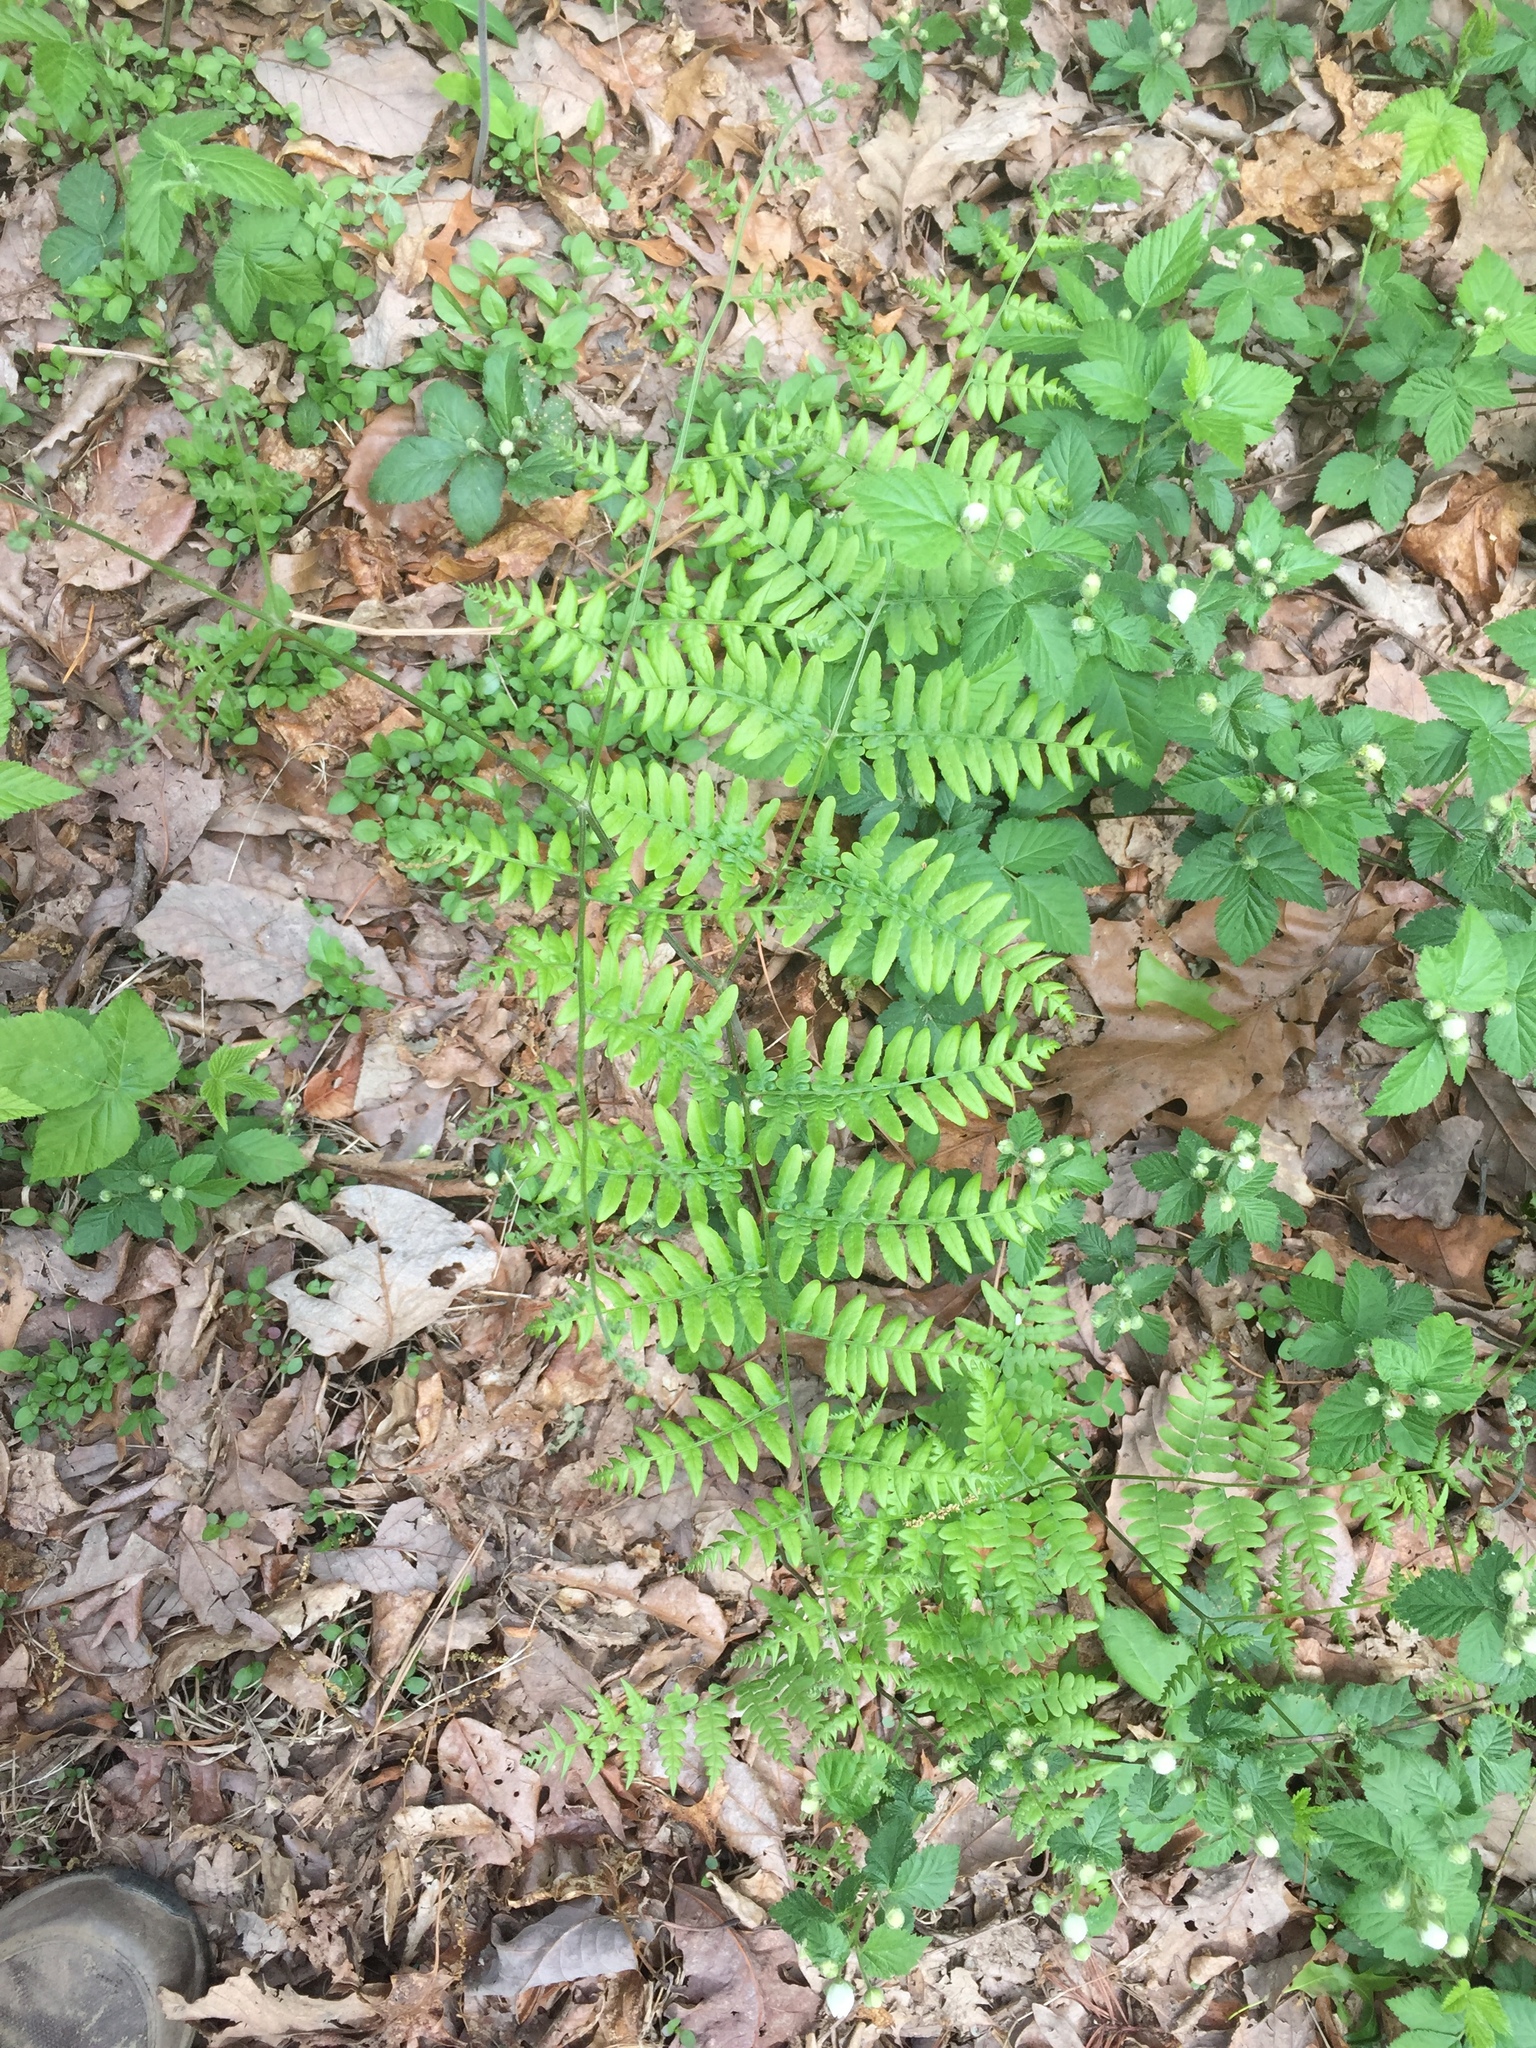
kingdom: Plantae
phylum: Tracheophyta
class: Polypodiopsida
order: Polypodiales
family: Dennstaedtiaceae
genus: Pteridium
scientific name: Pteridium aquilinum
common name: Bracken
